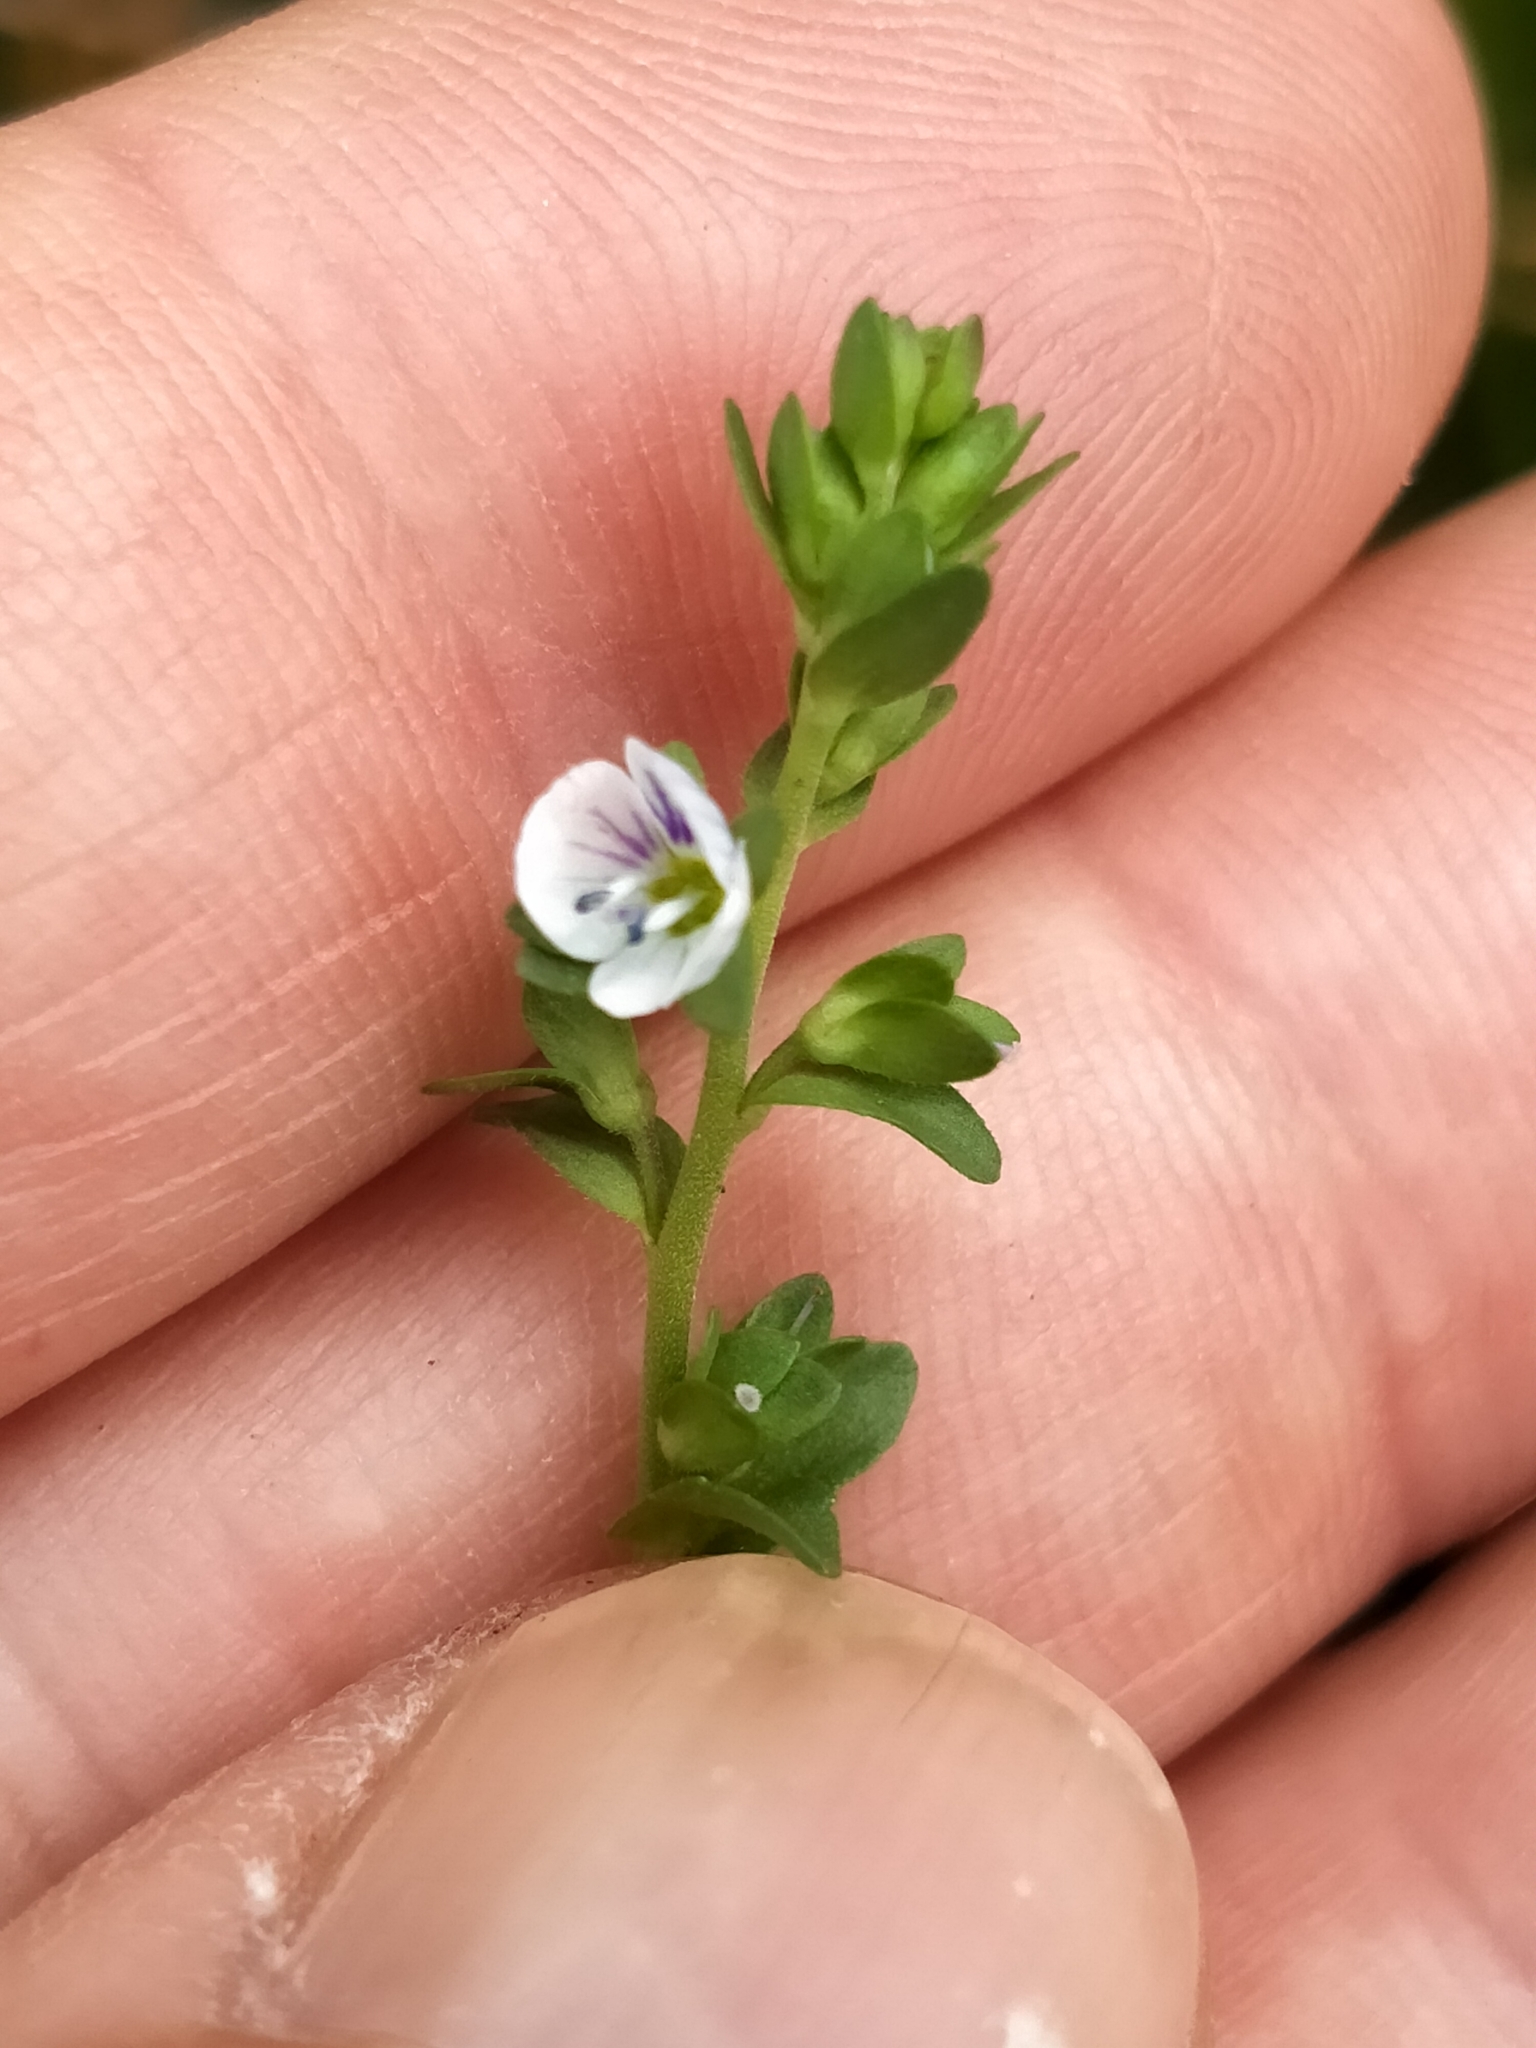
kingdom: Plantae
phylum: Tracheophyta
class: Magnoliopsida
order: Lamiales
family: Plantaginaceae
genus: Veronica
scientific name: Veronica serpyllifolia
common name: Thyme-leaved speedwell
